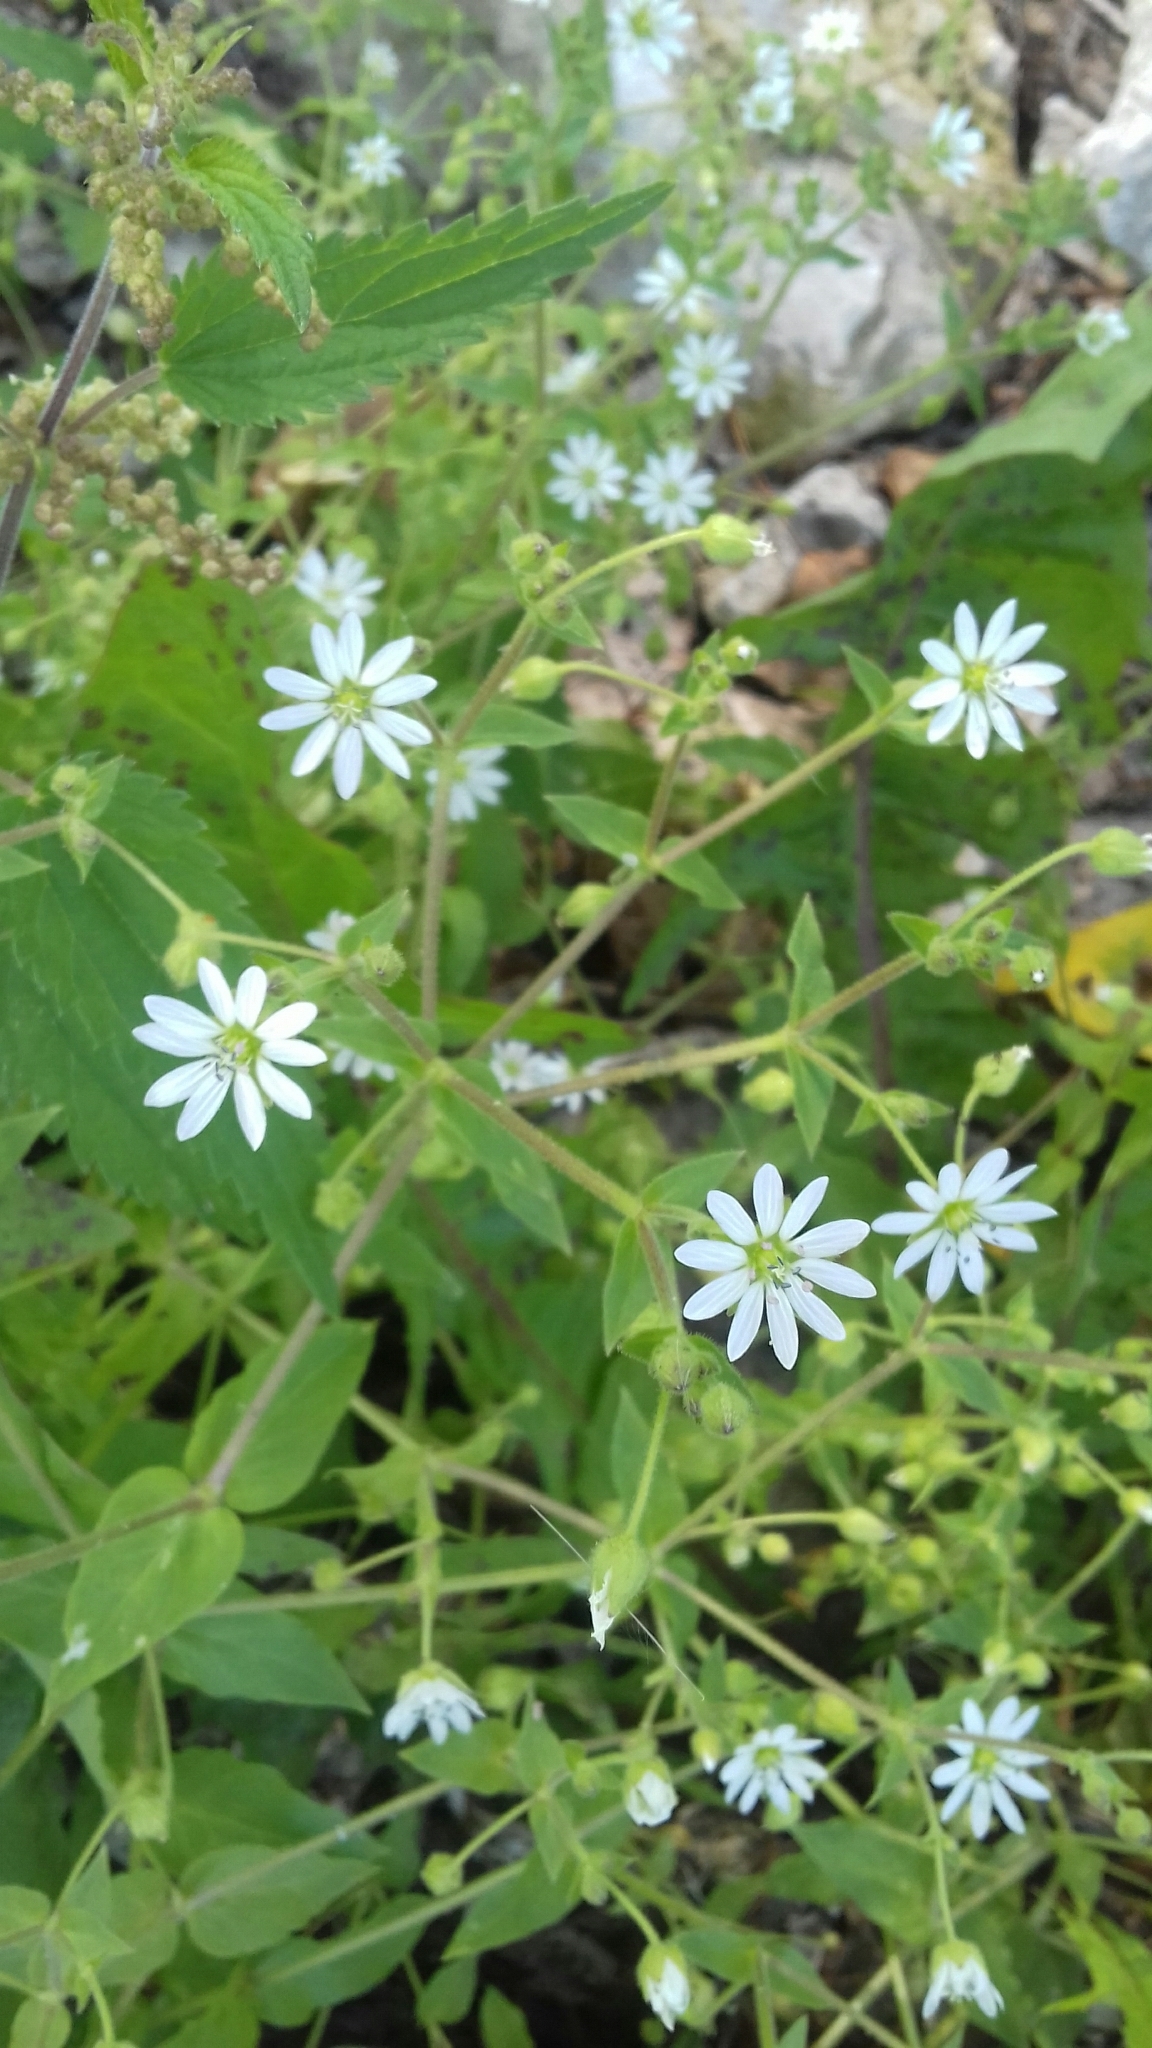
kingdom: Plantae
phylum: Tracheophyta
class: Magnoliopsida
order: Caryophyllales
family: Caryophyllaceae
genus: Stellaria
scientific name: Stellaria aquatica
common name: Water chickweed
